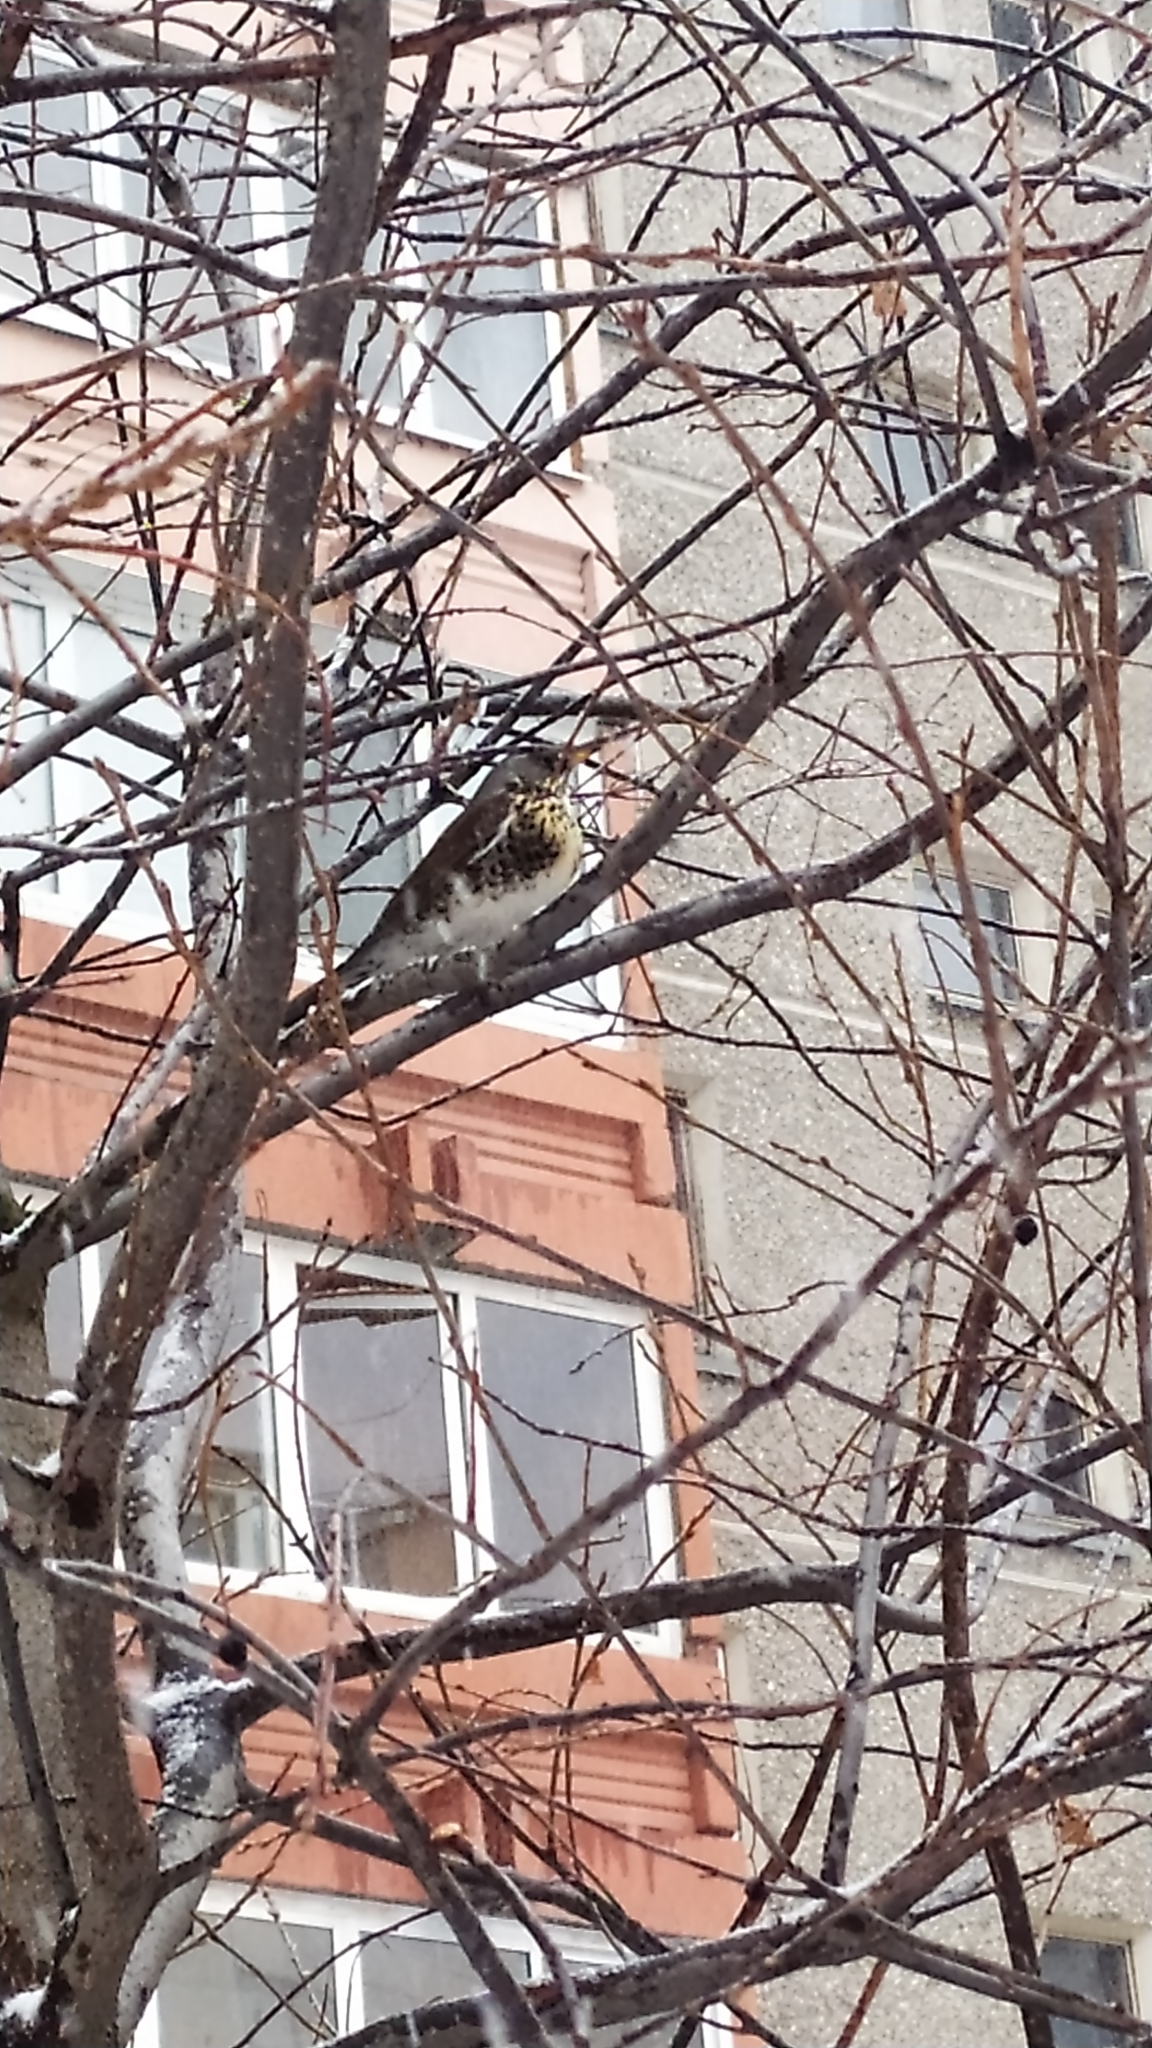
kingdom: Animalia
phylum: Chordata
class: Aves
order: Passeriformes
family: Turdidae
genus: Turdus
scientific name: Turdus pilaris
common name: Fieldfare
